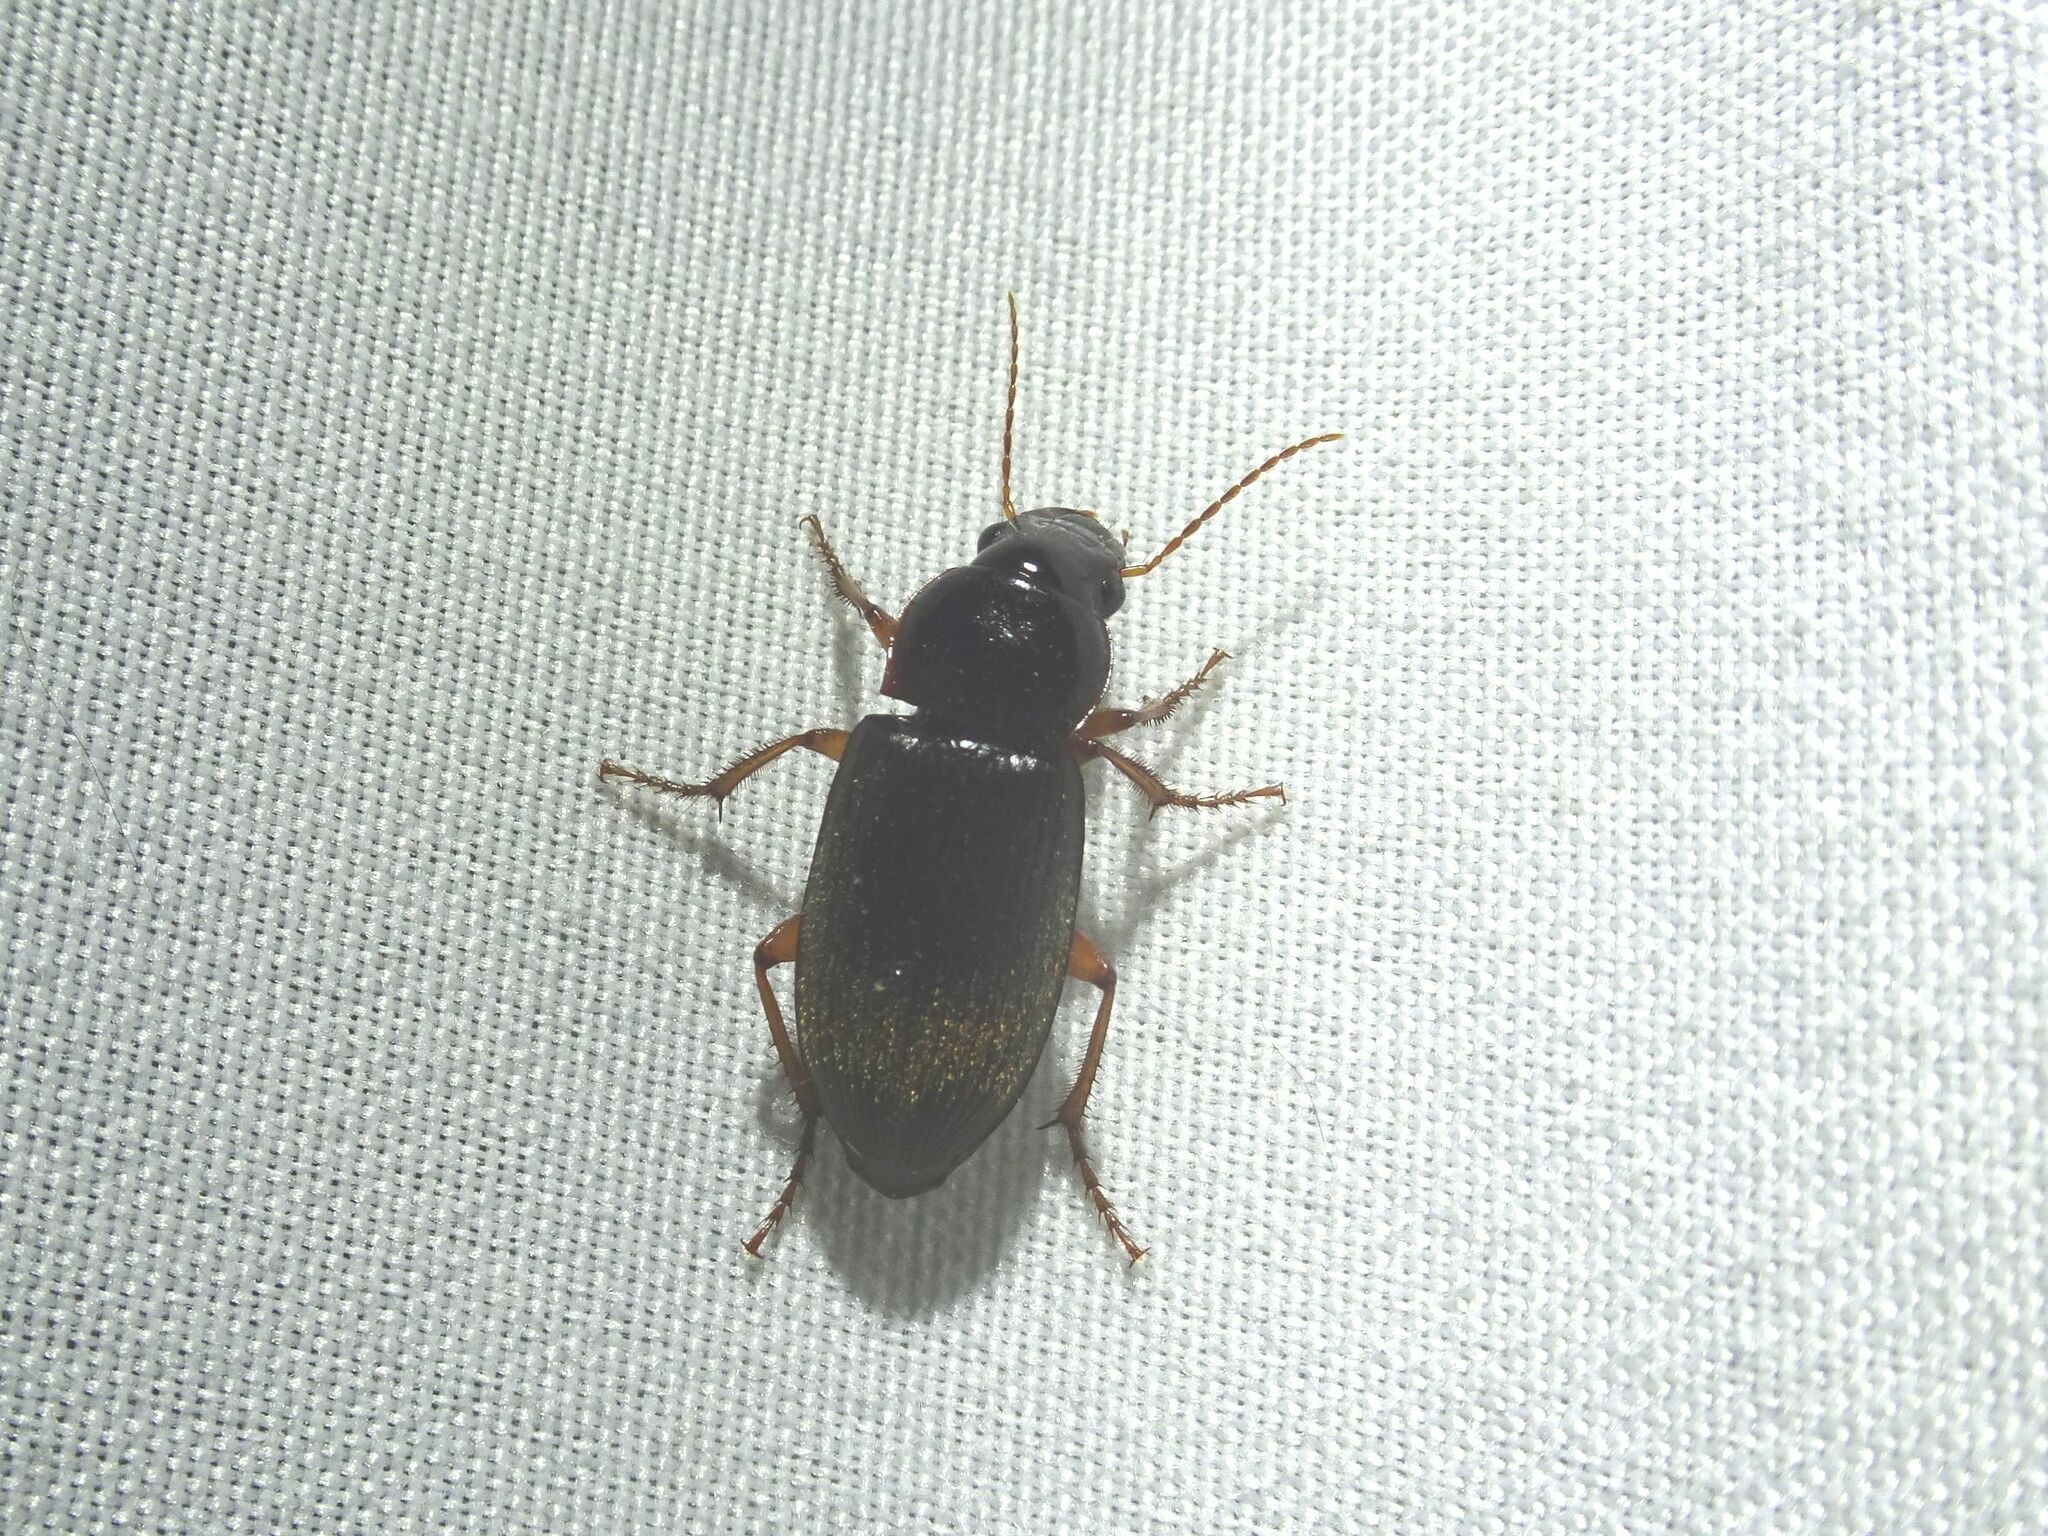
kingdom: Animalia
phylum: Arthropoda
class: Insecta
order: Coleoptera
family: Carabidae
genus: Harpalus
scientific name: Harpalus rufipes
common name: Strawberry harp ground beetle
